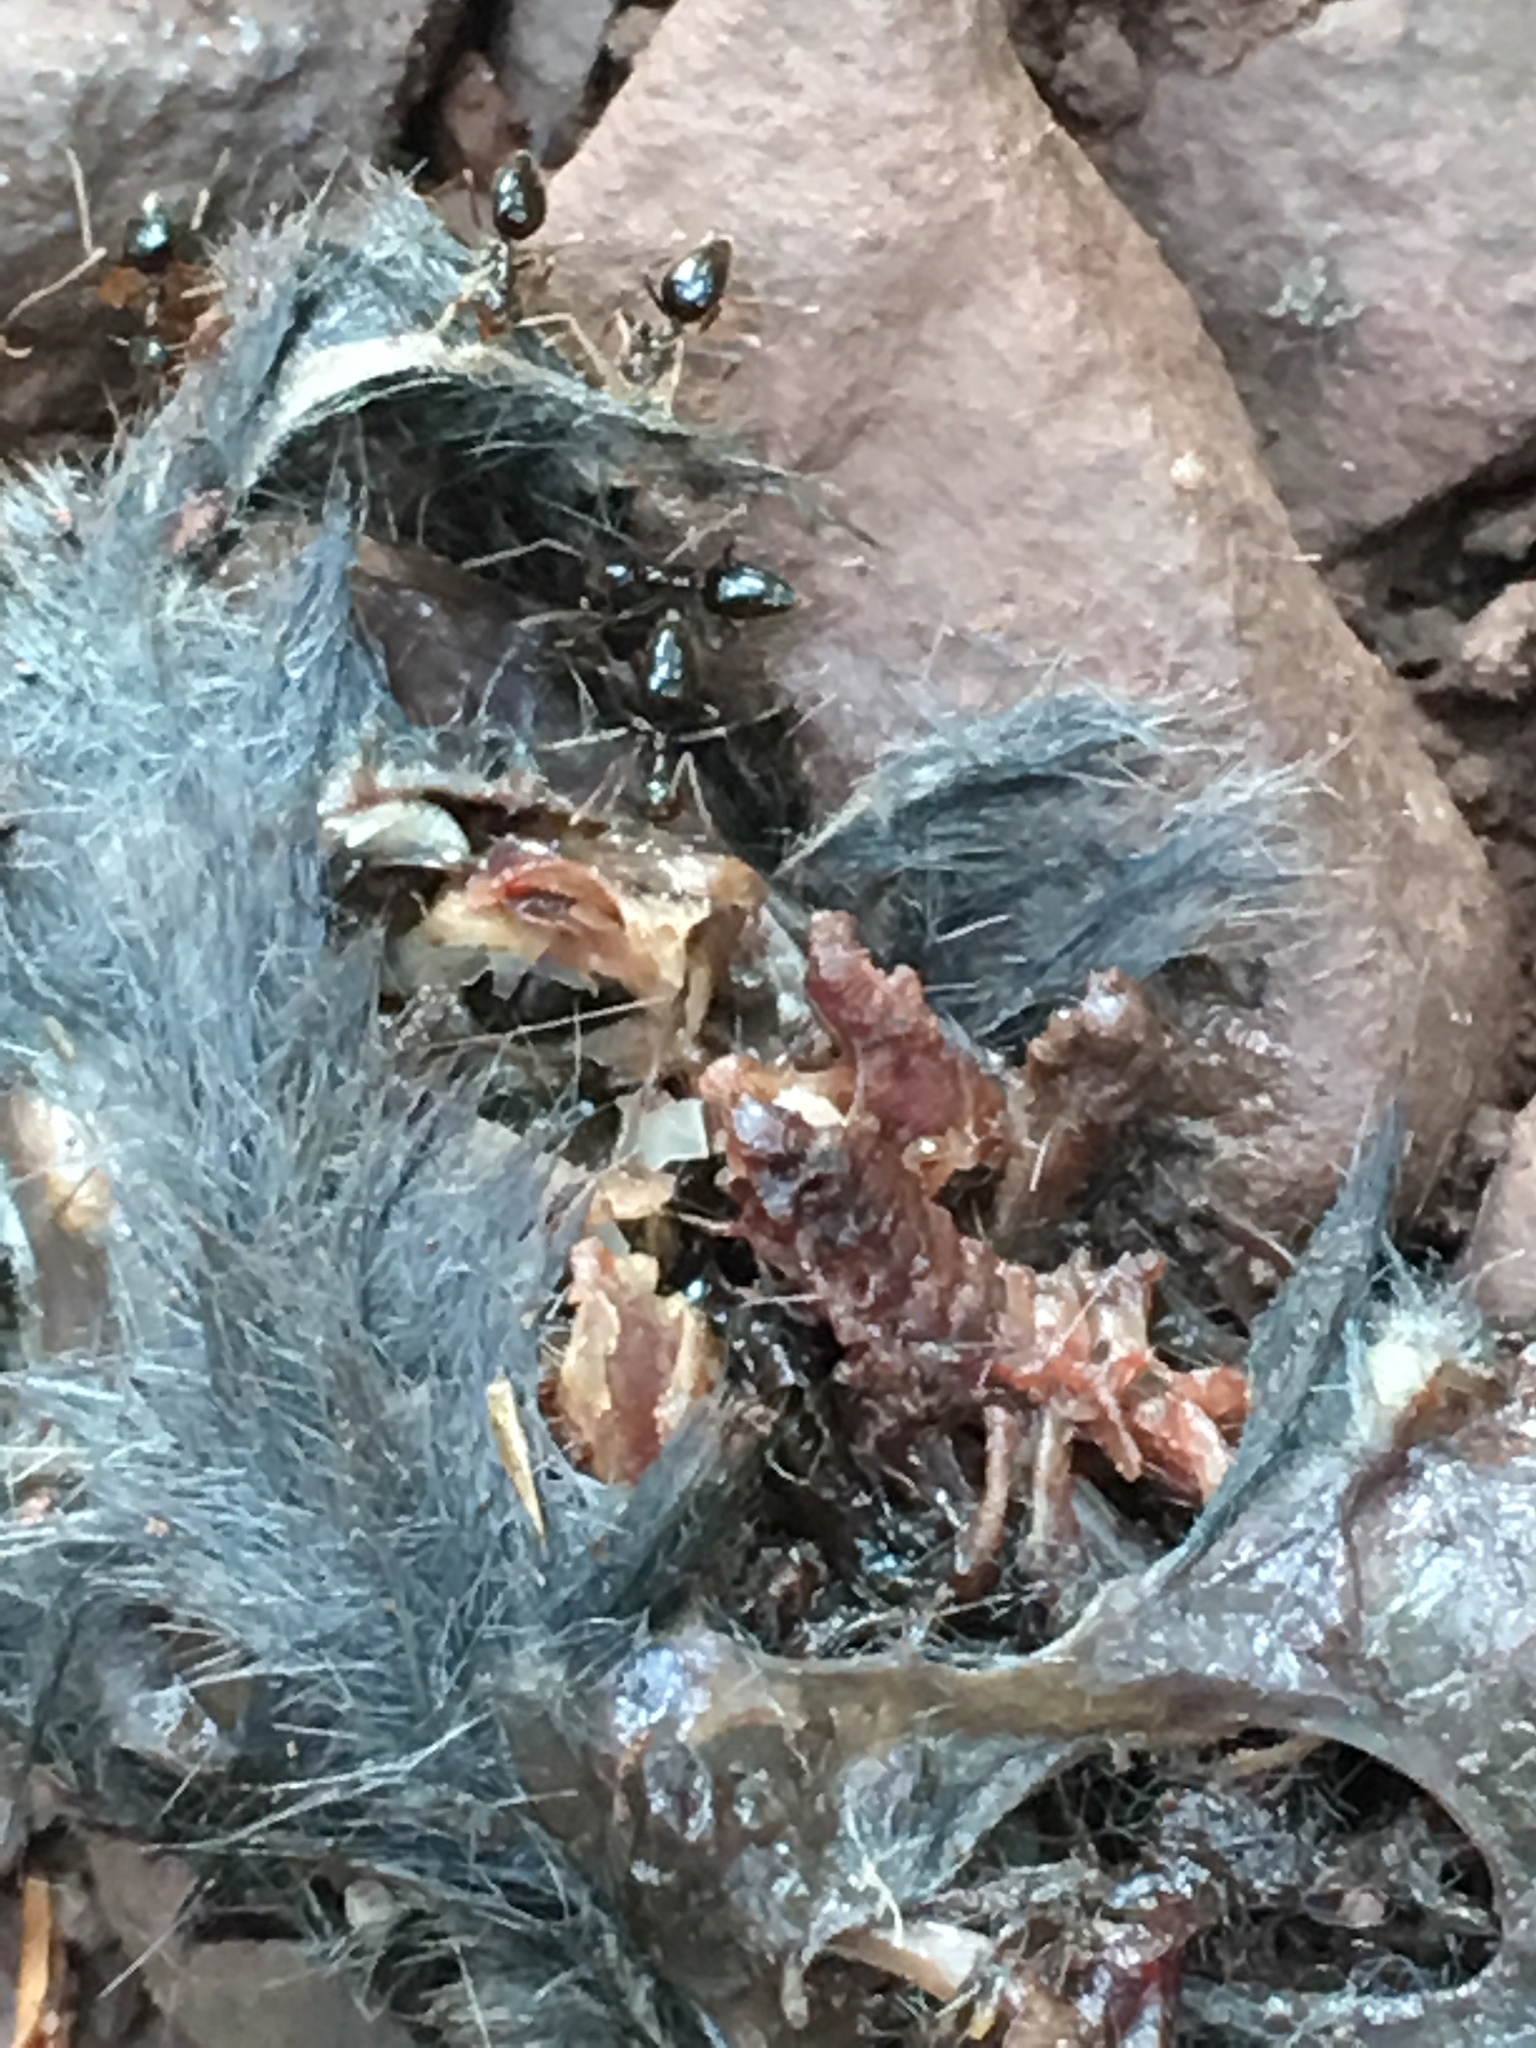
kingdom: Animalia
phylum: Chordata
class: Mammalia
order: Soricomorpha
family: Soricidae
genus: Blarina
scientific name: Blarina brevicauda
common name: Northern short-tailed shrew
